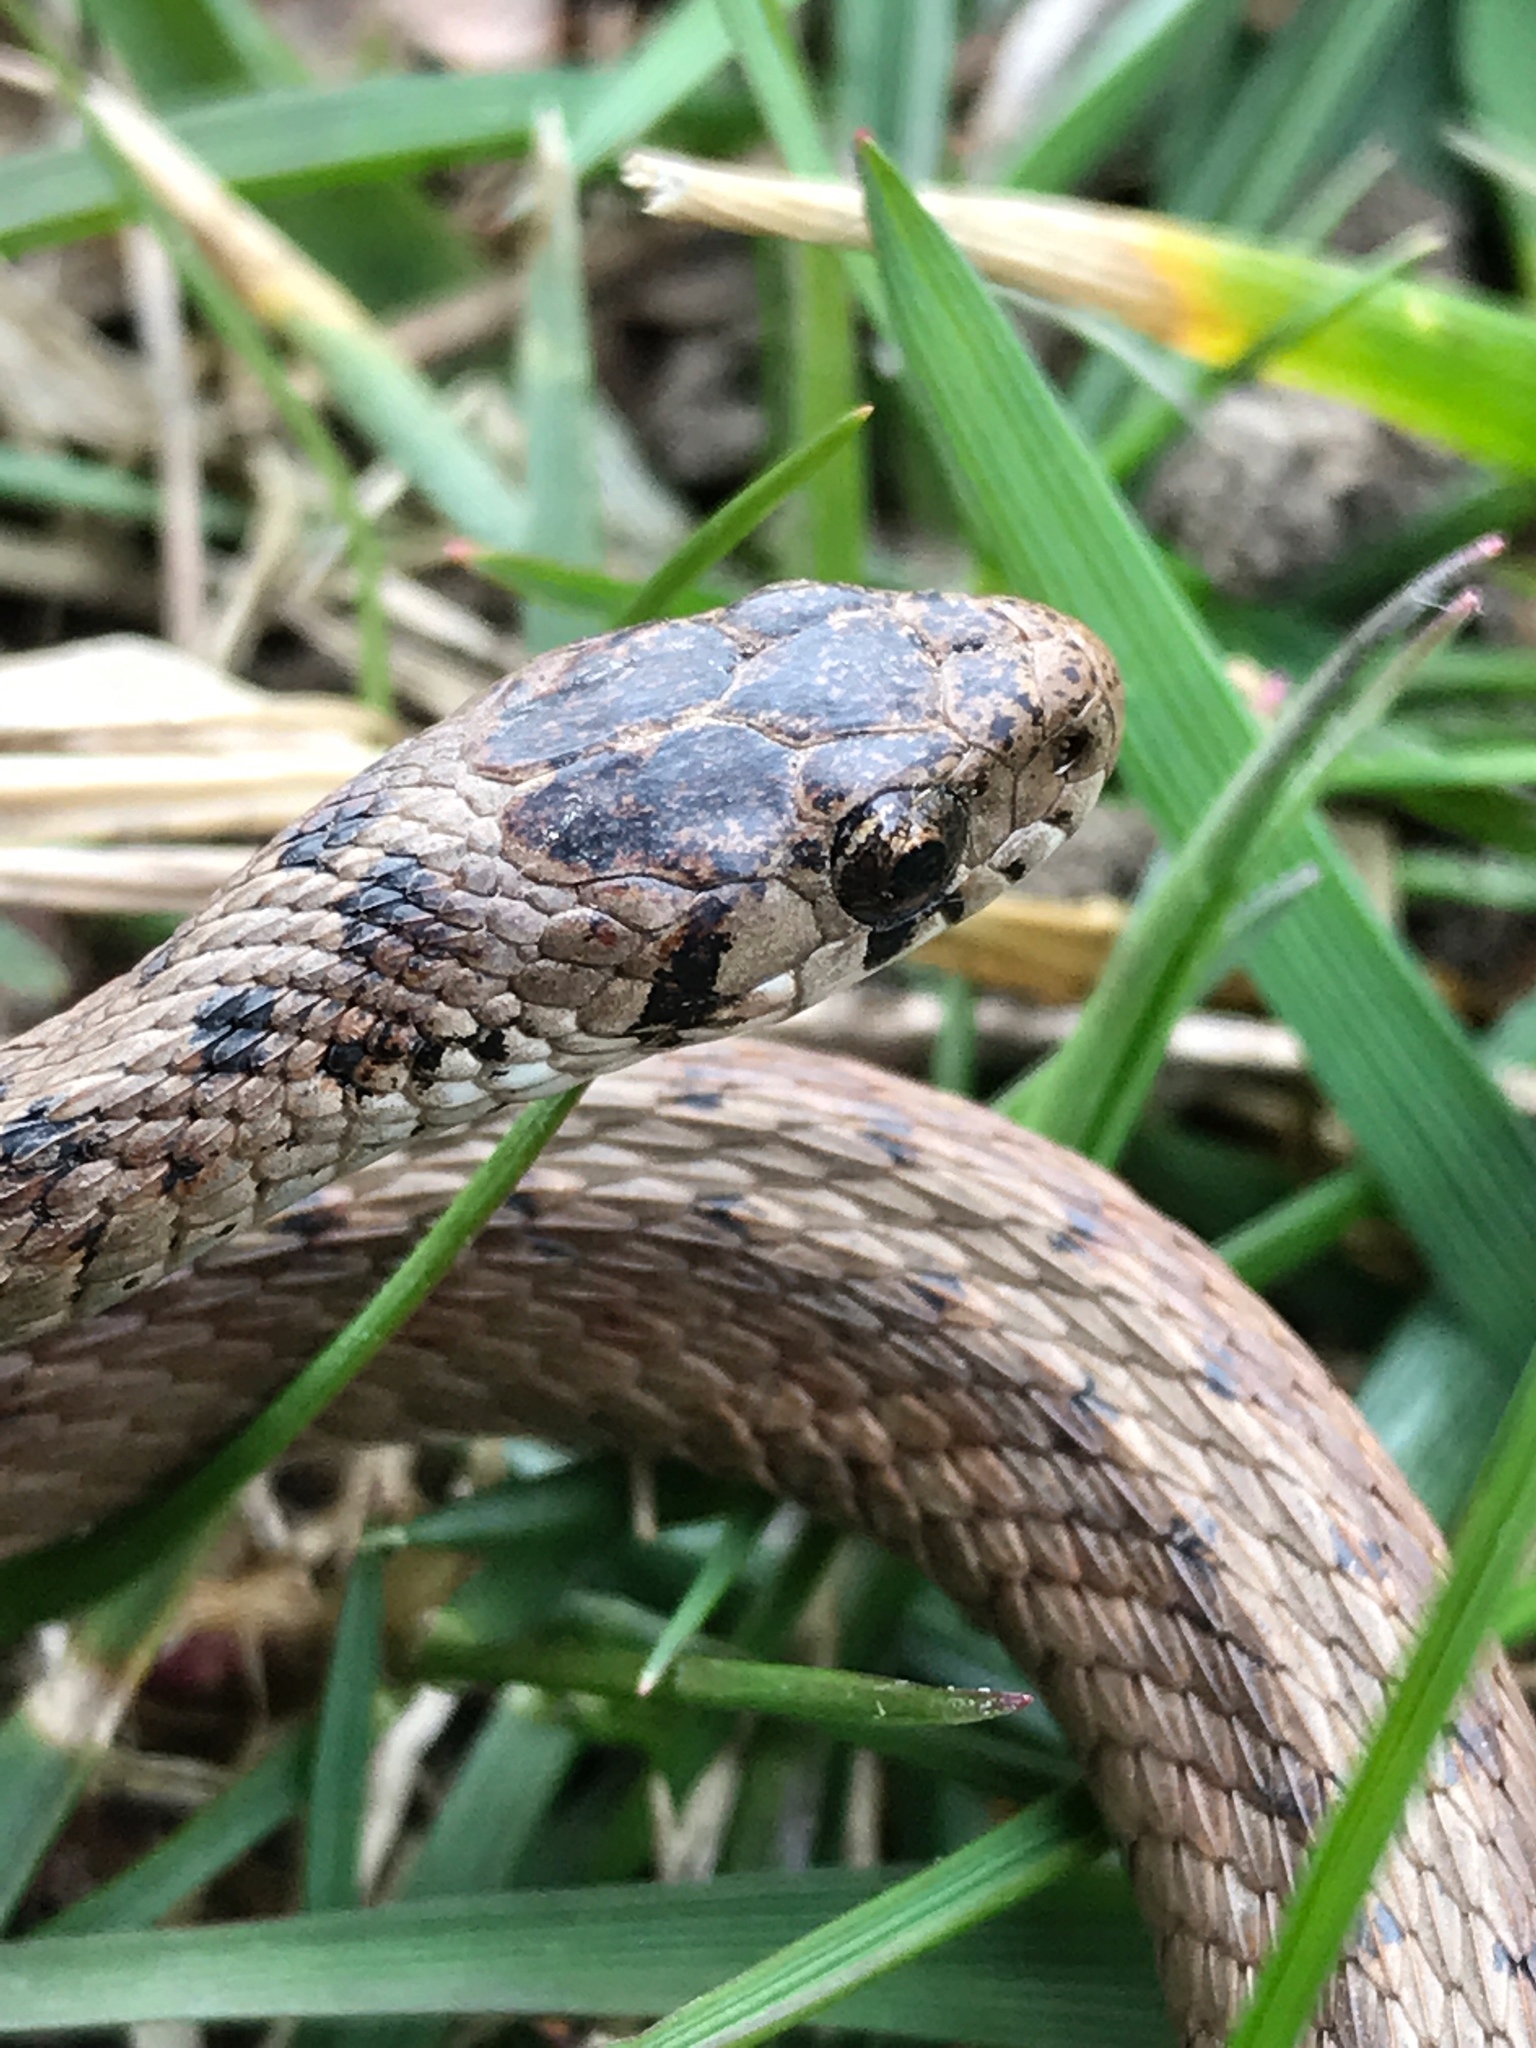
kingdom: Animalia
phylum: Chordata
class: Squamata
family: Colubridae
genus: Storeria
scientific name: Storeria dekayi
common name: (dekay’s) brown snake
